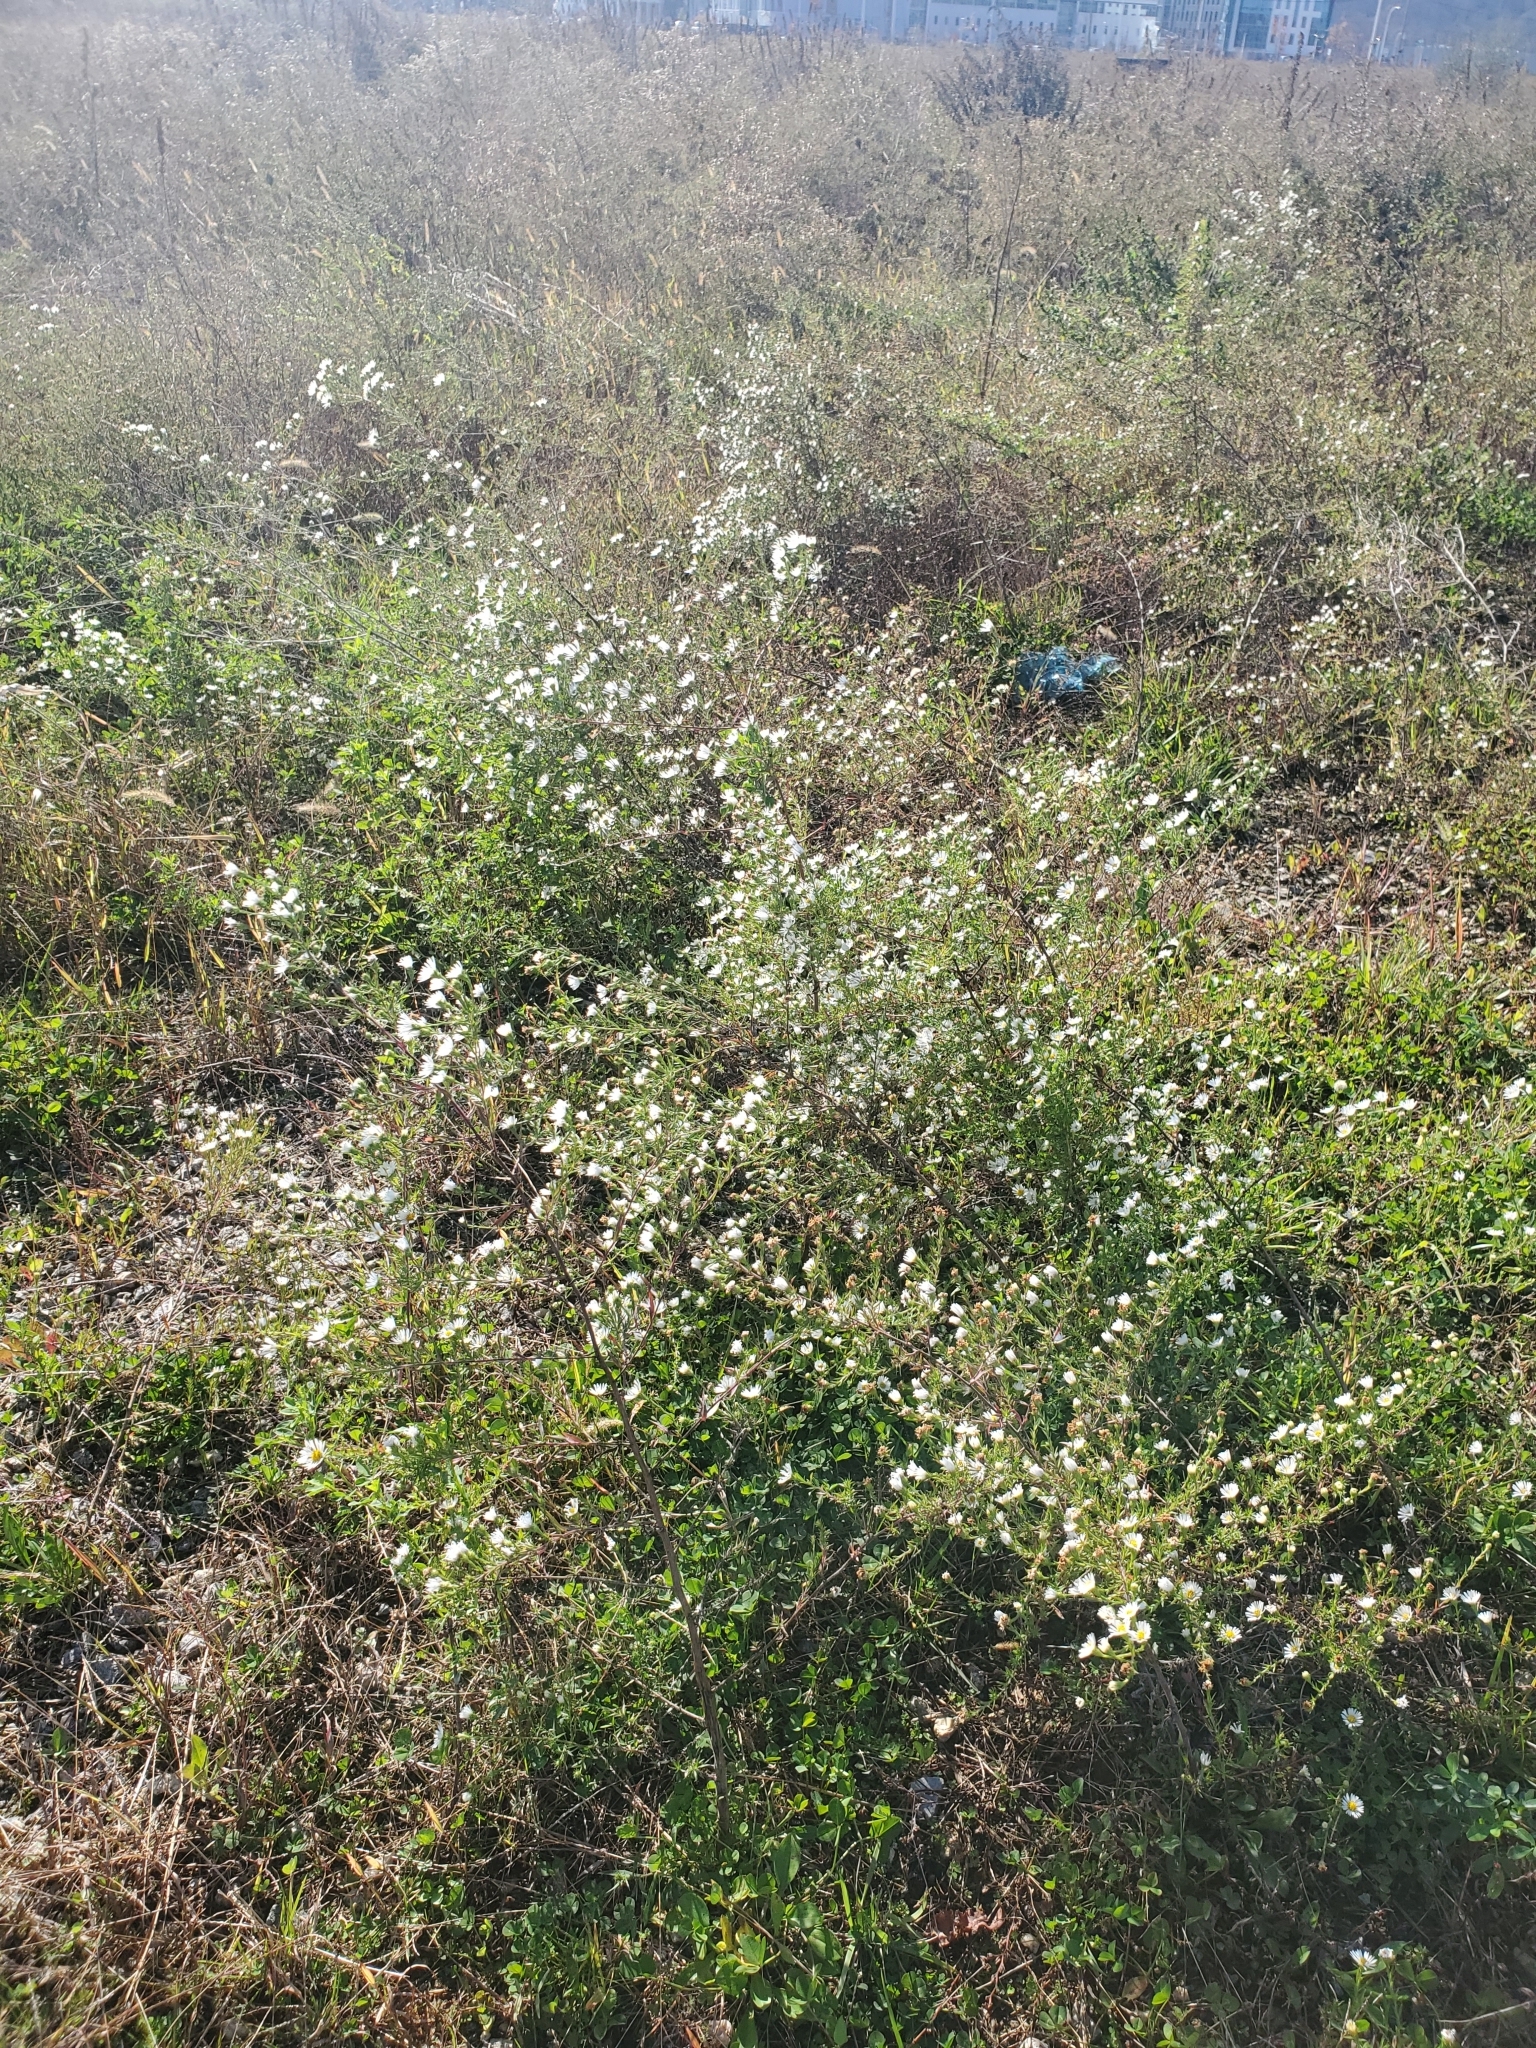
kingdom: Plantae
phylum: Tracheophyta
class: Magnoliopsida
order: Asterales
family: Asteraceae
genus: Symphyotrichum
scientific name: Symphyotrichum pilosum
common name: Awl aster
